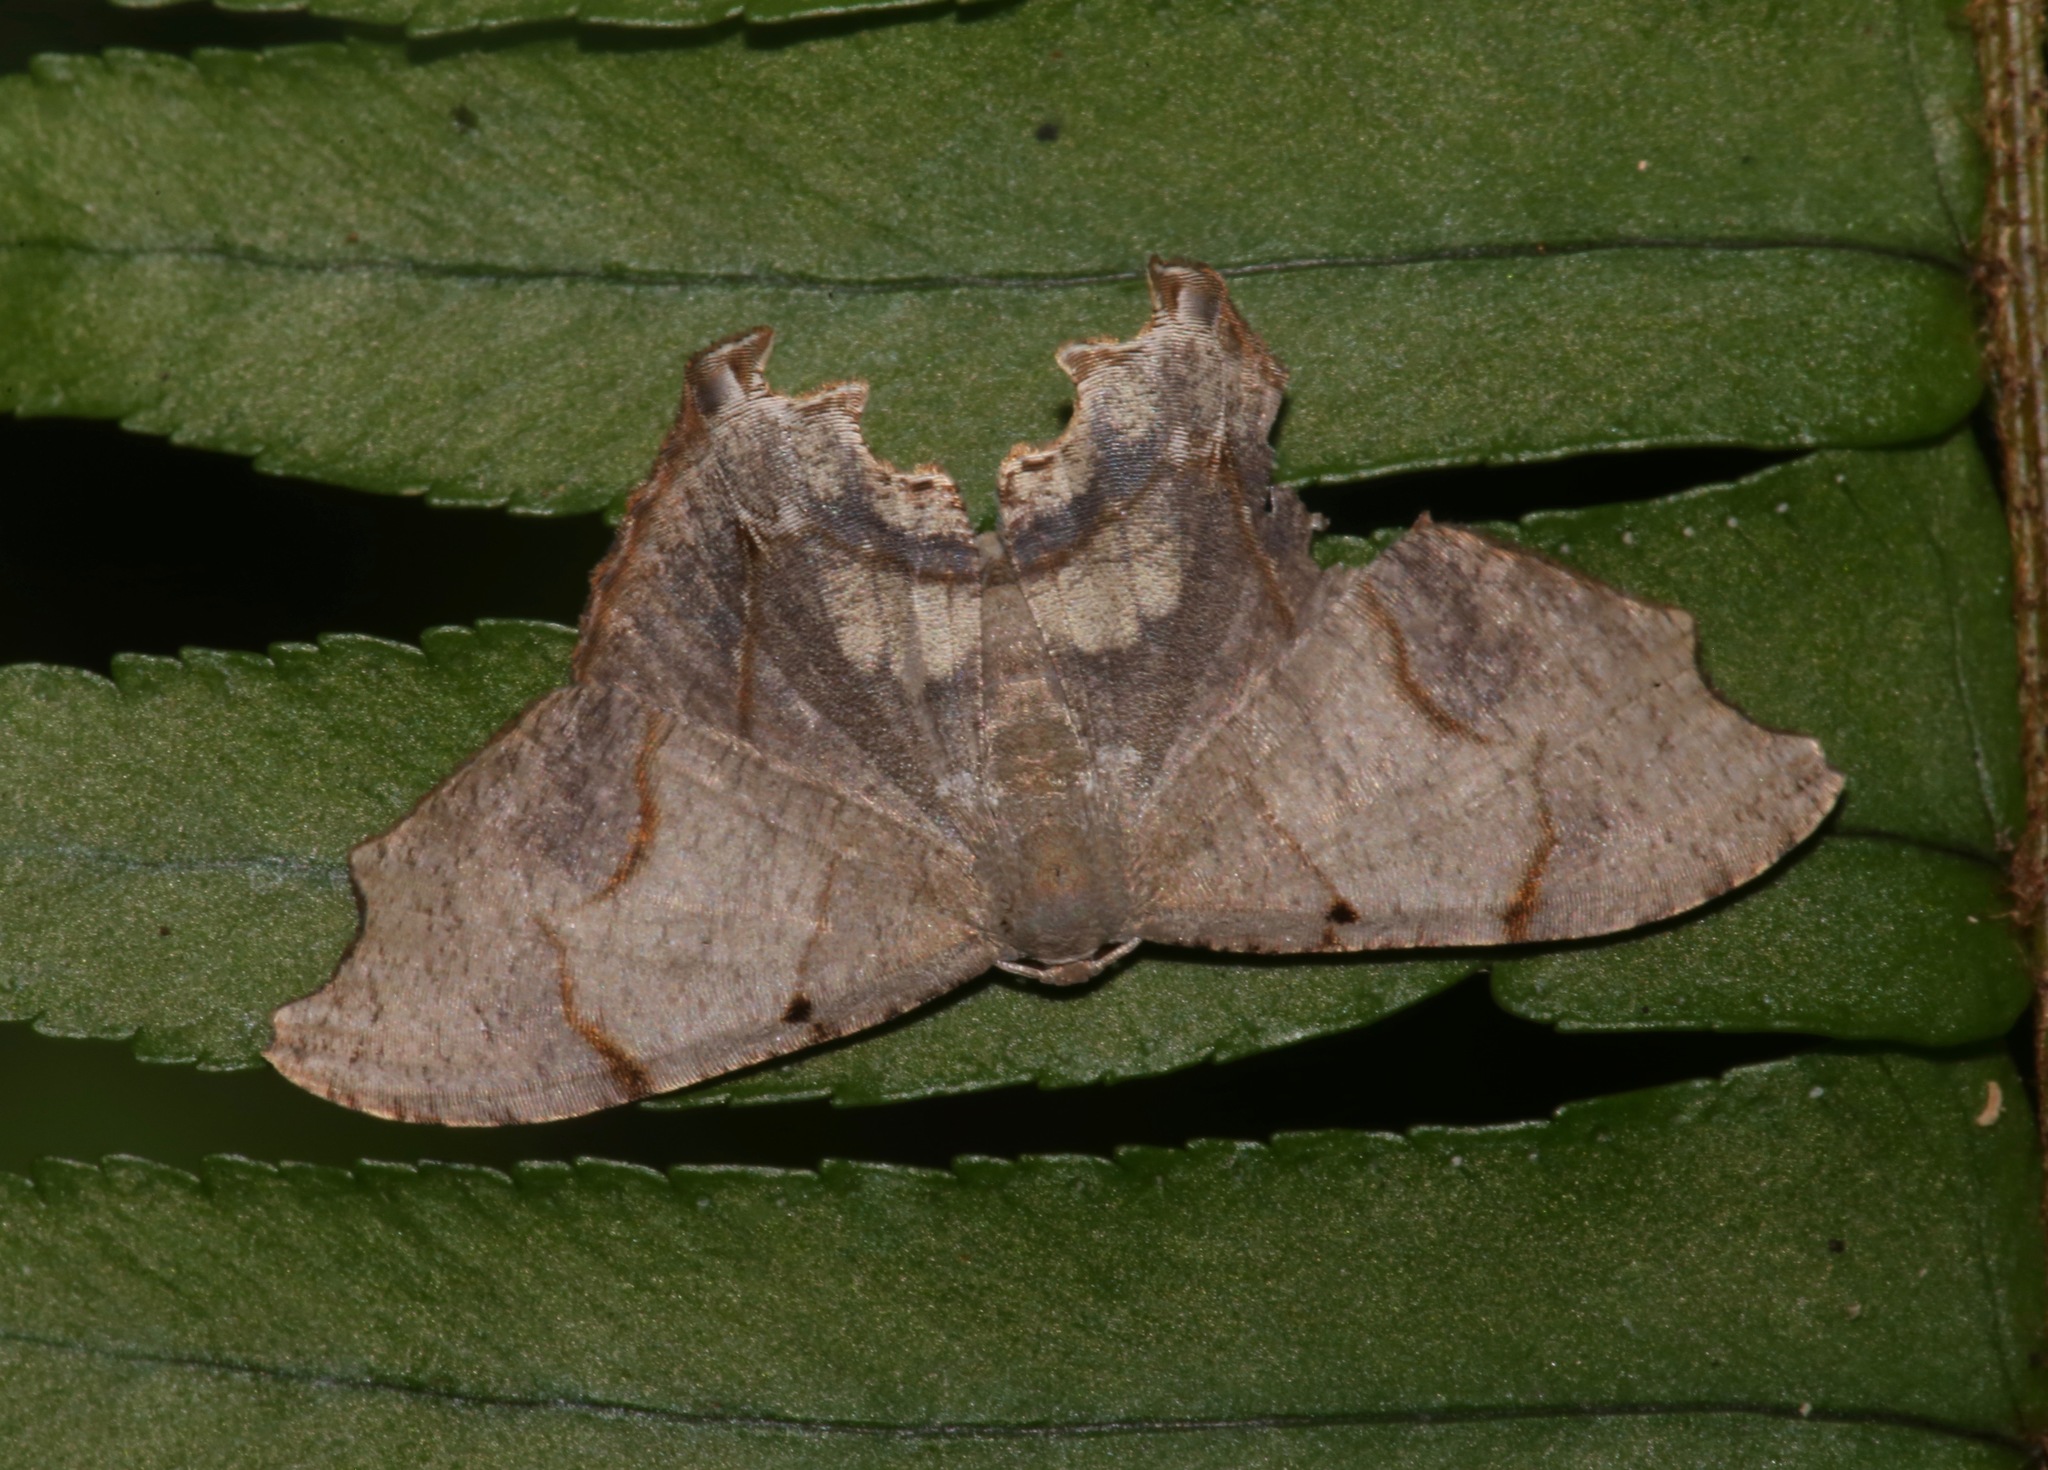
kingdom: Animalia
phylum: Arthropoda
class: Insecta
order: Lepidoptera
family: Uraniidae
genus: Trotorhombia
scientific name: Trotorhombia metachromata
